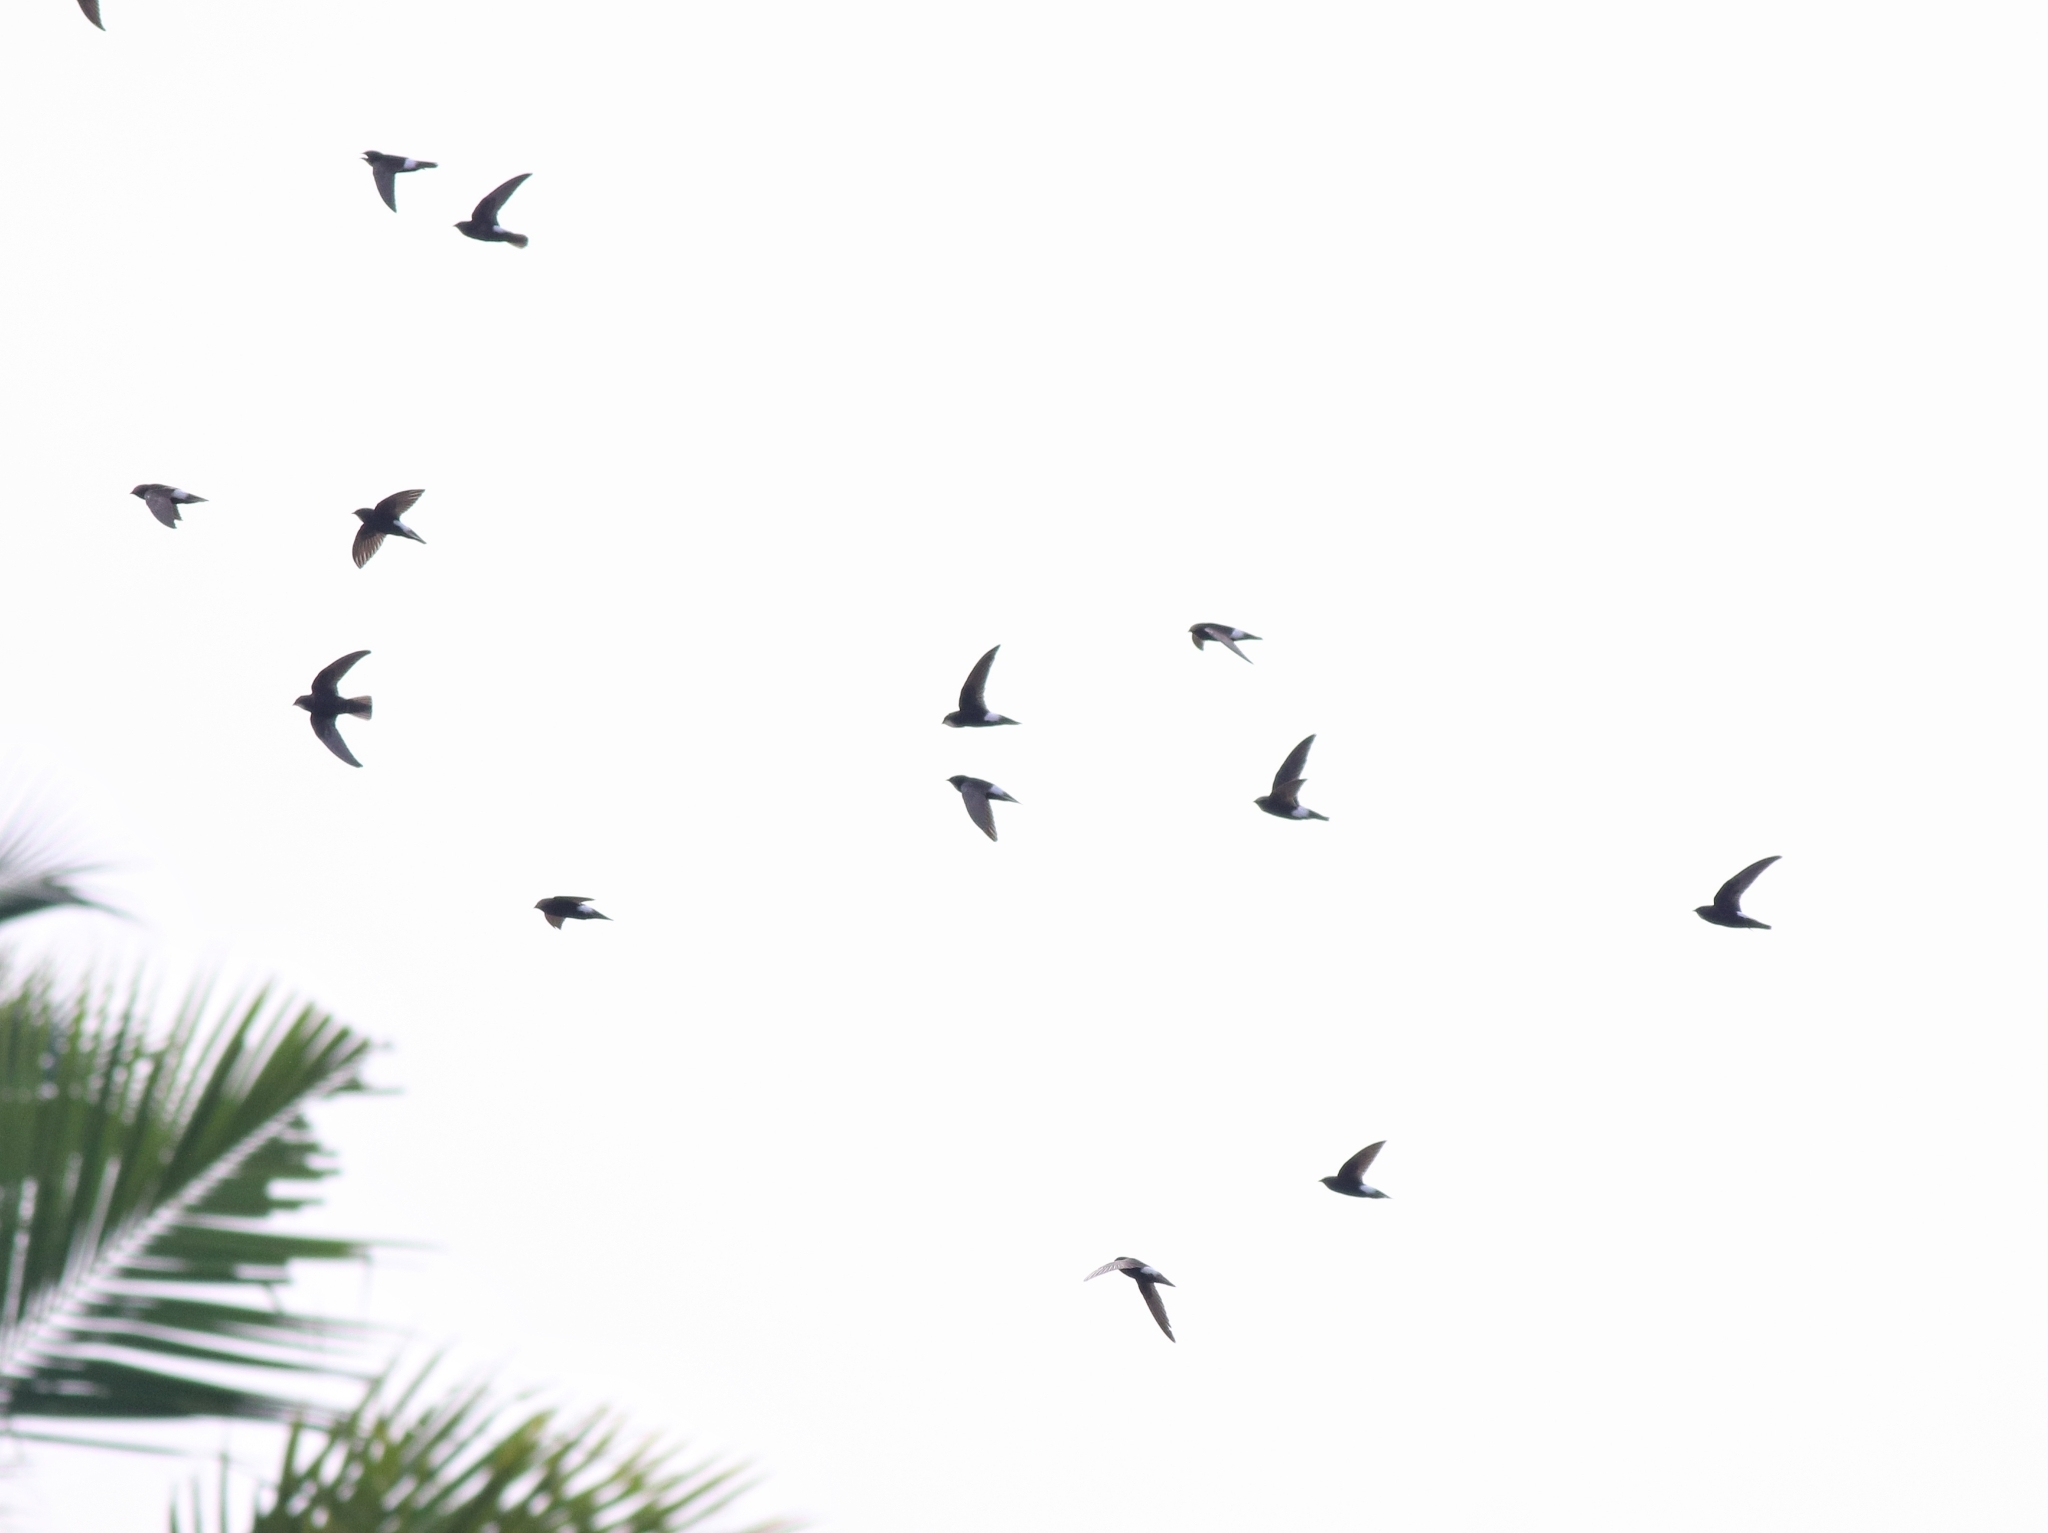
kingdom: Animalia
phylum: Chordata
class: Aves
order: Apodiformes
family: Apodidae
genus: Apus
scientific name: Apus affinis
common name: Little swift
